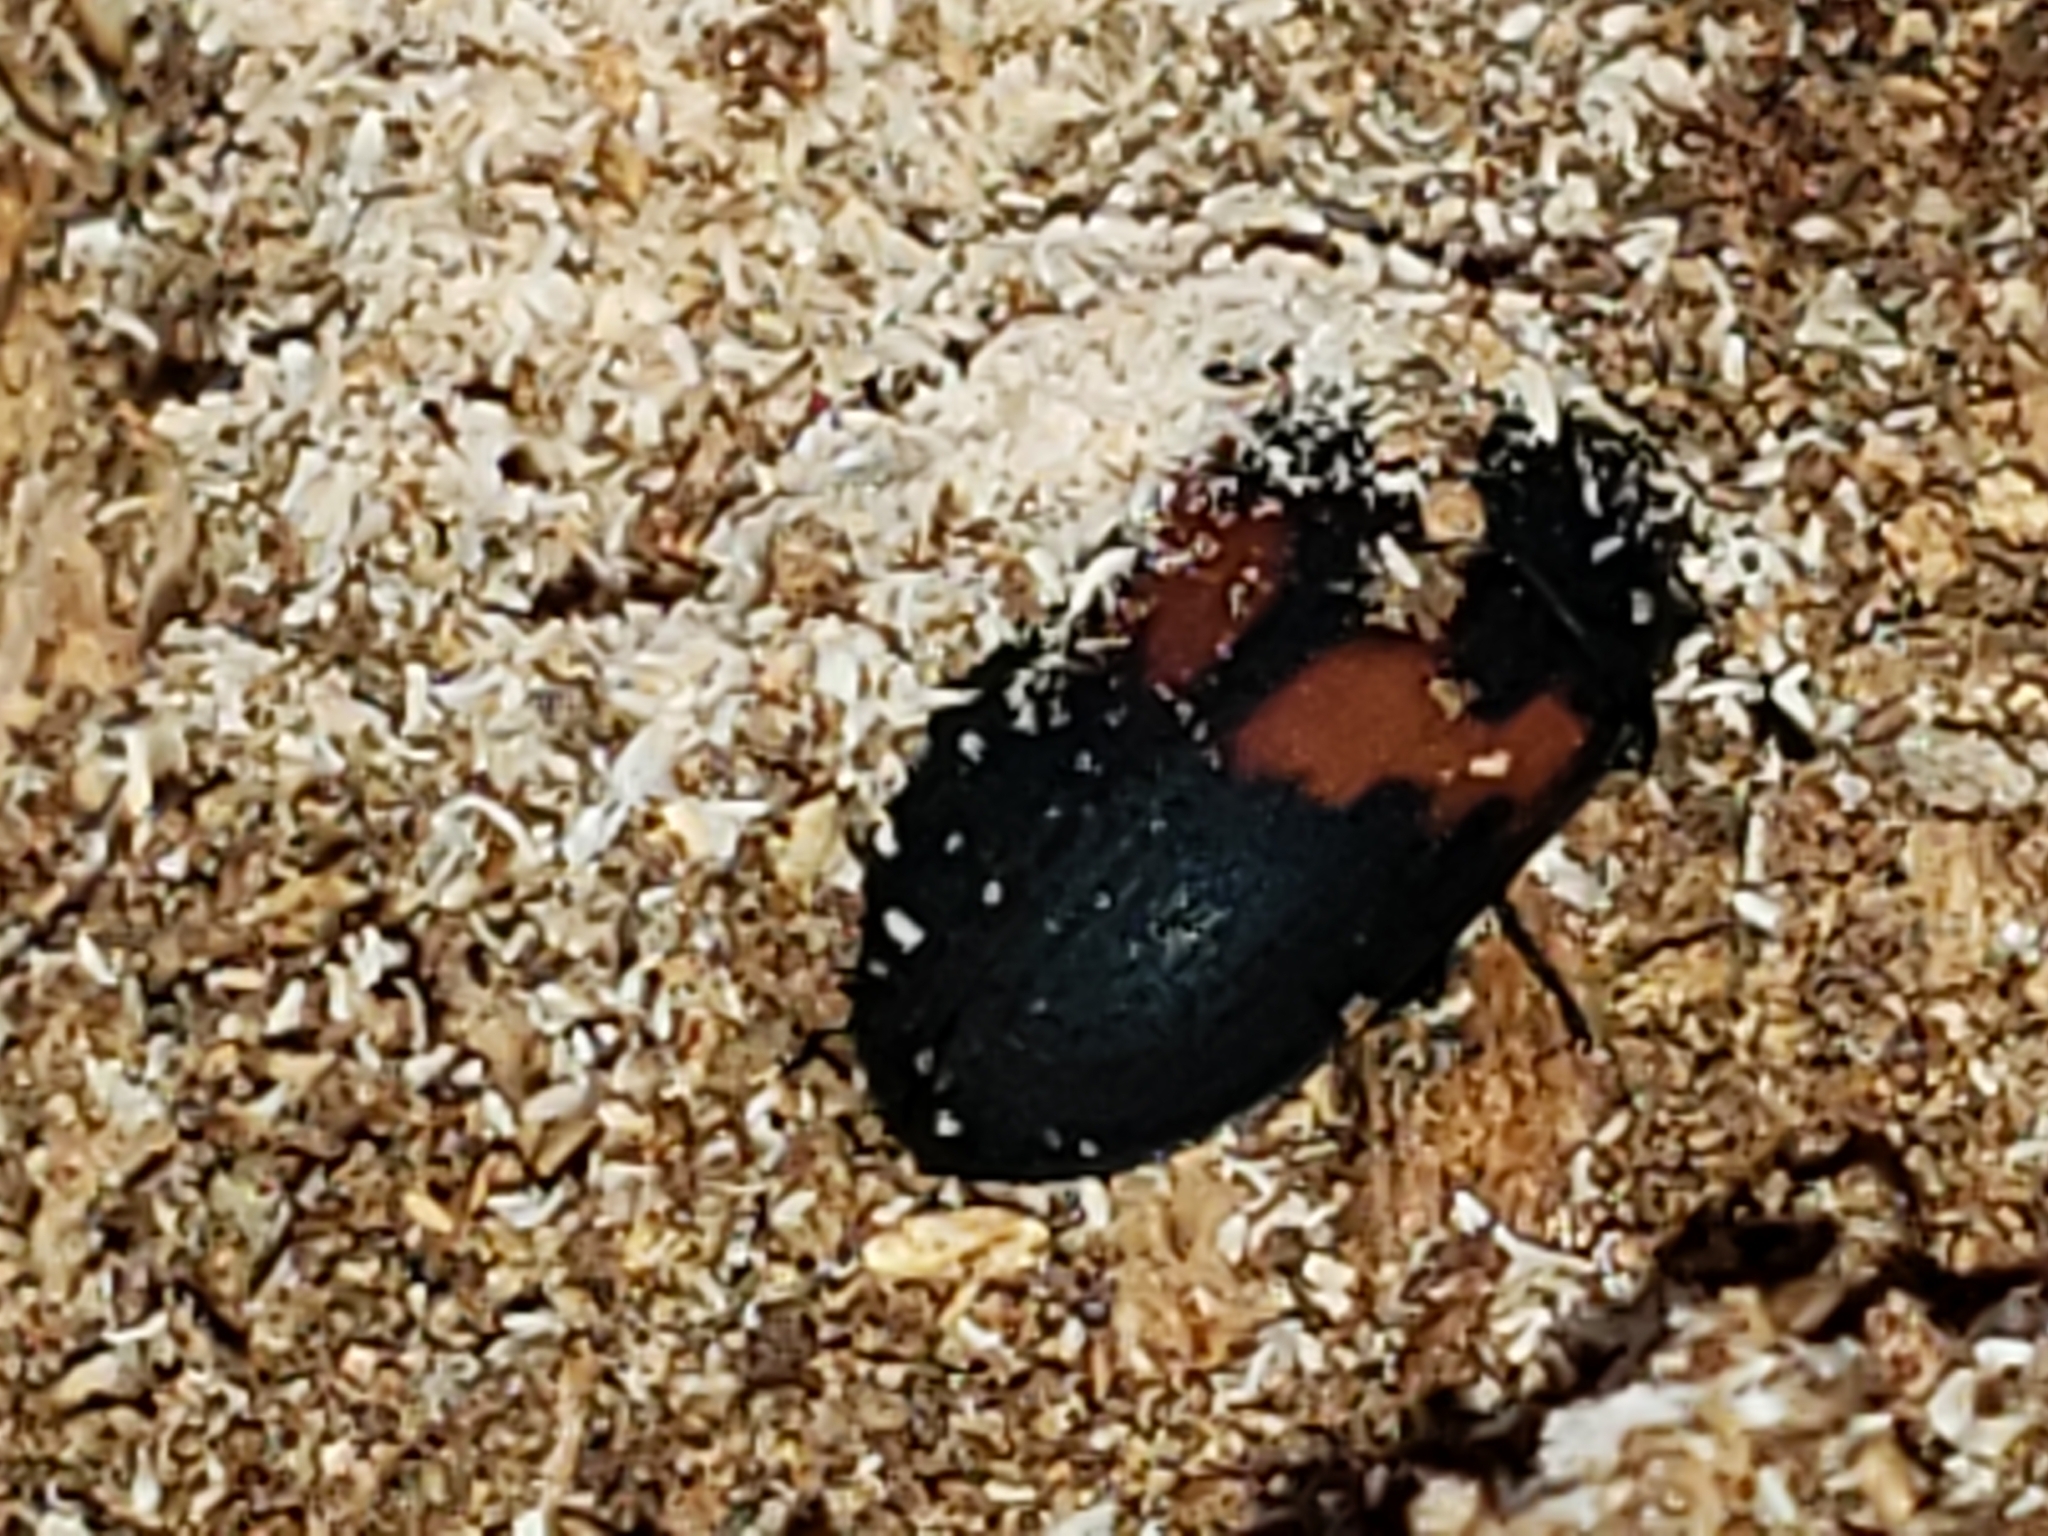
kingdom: Animalia
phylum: Arthropoda
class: Insecta
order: Coleoptera
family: Tenebrionidae
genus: Platydema
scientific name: Platydema elliptica
